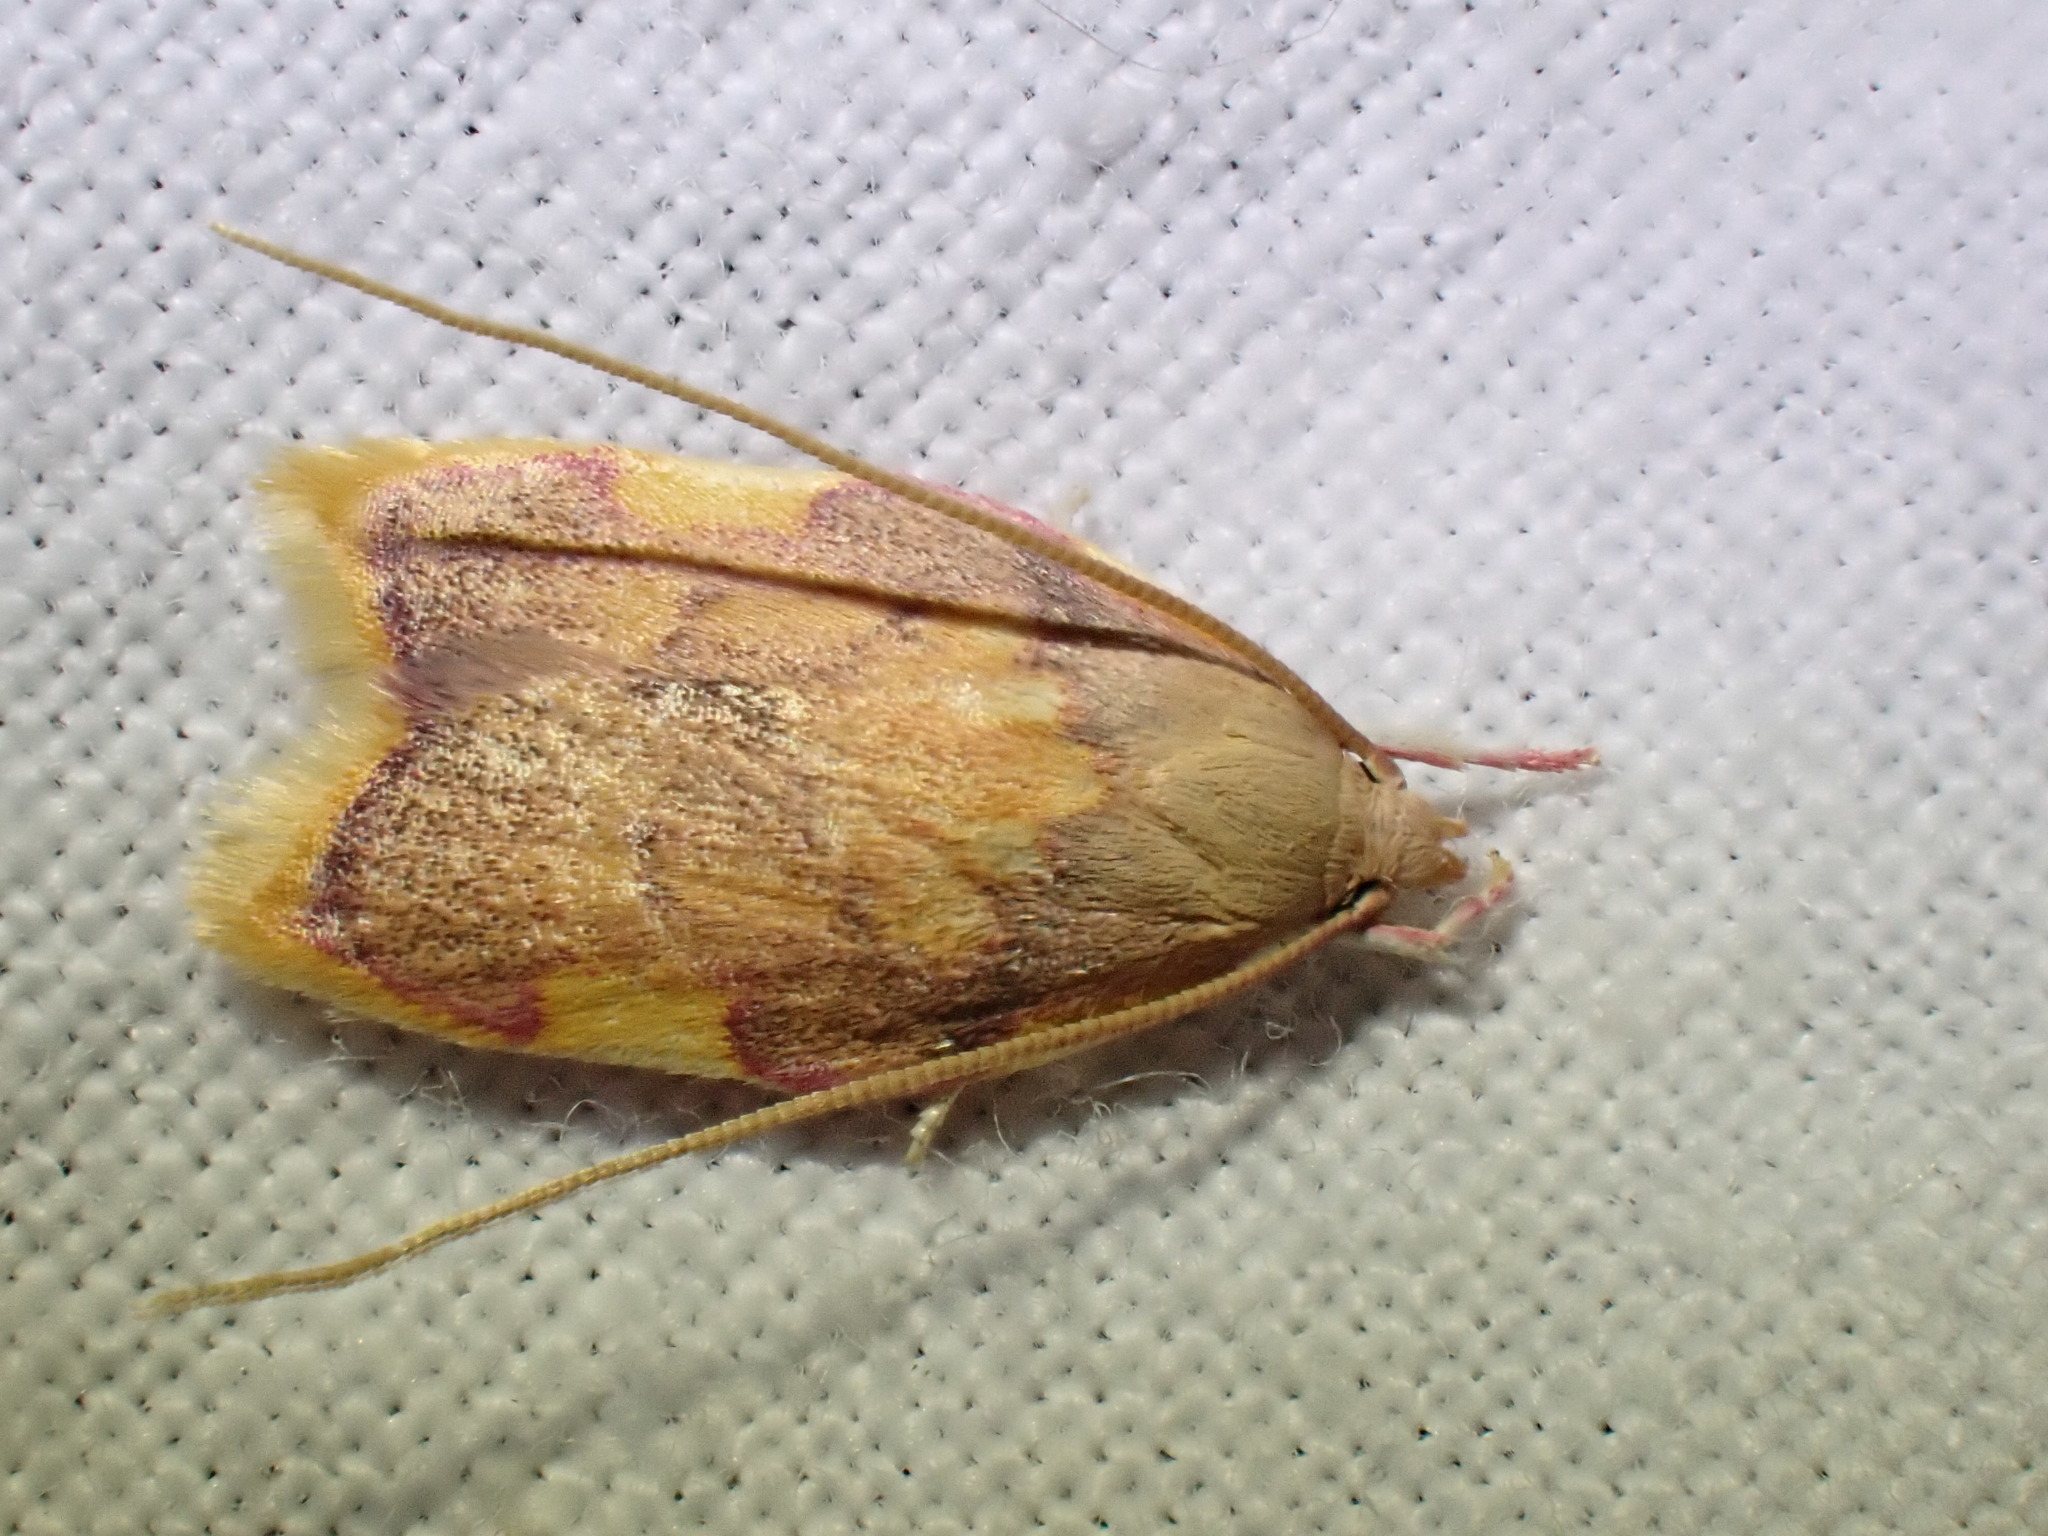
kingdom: Animalia
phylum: Arthropoda
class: Insecta
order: Lepidoptera
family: Peleopodidae
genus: Carcina
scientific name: Carcina quercana
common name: Moth
